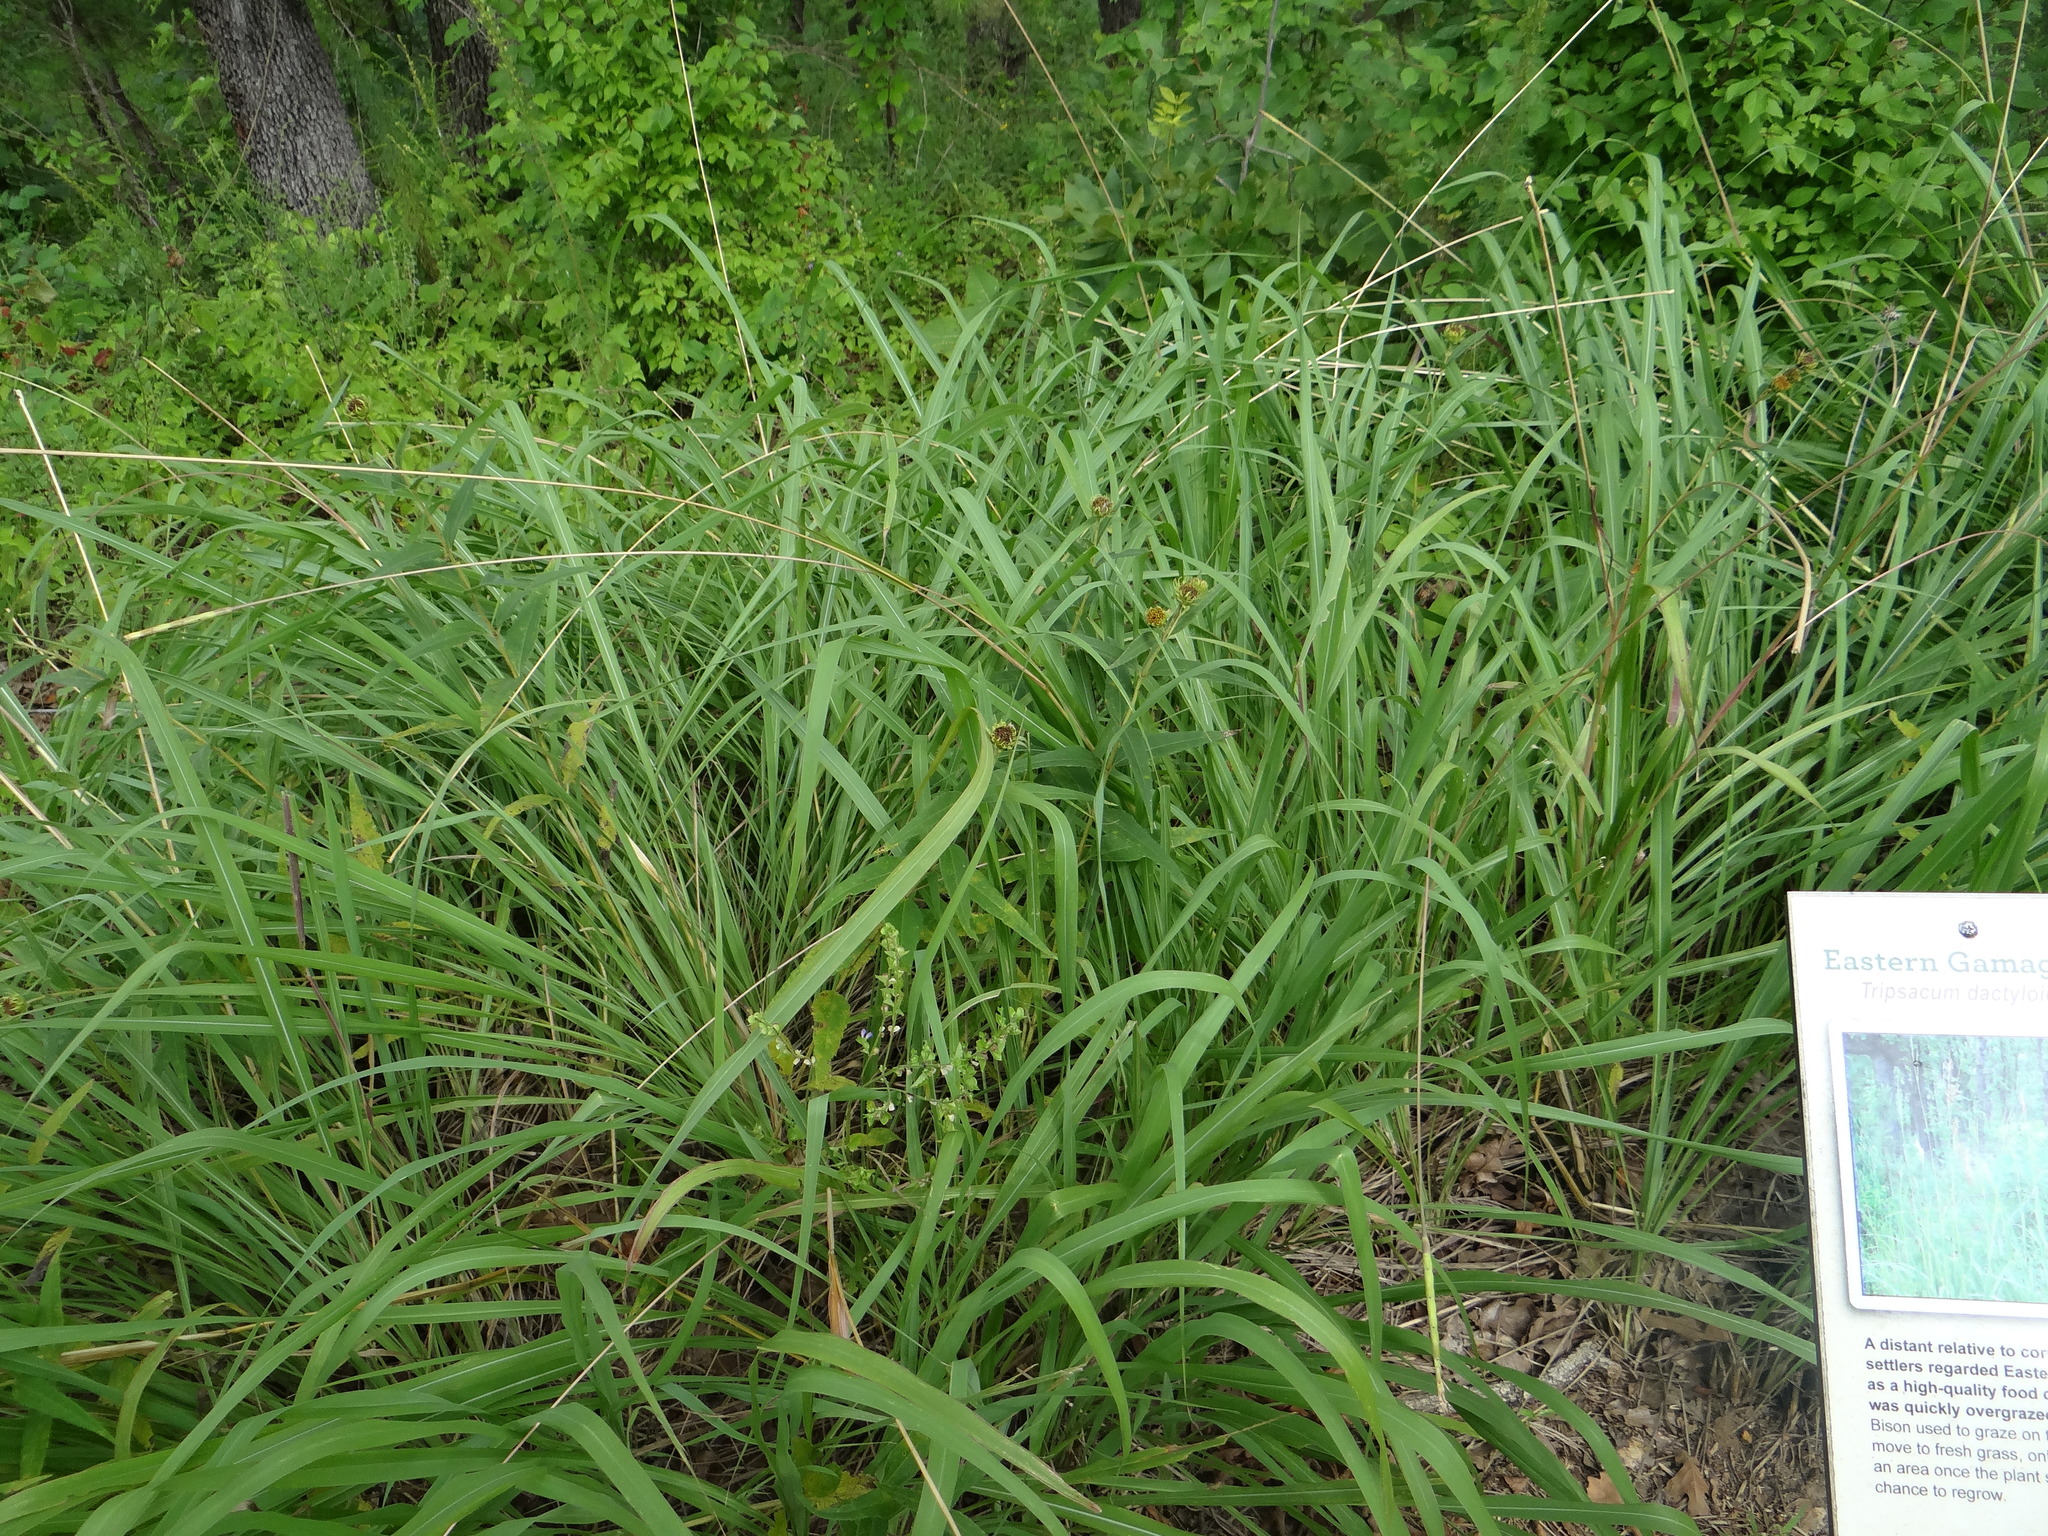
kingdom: Plantae
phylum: Tracheophyta
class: Liliopsida
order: Poales
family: Poaceae
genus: Tripsacum
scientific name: Tripsacum dactyloides
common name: Buffalo-grass
